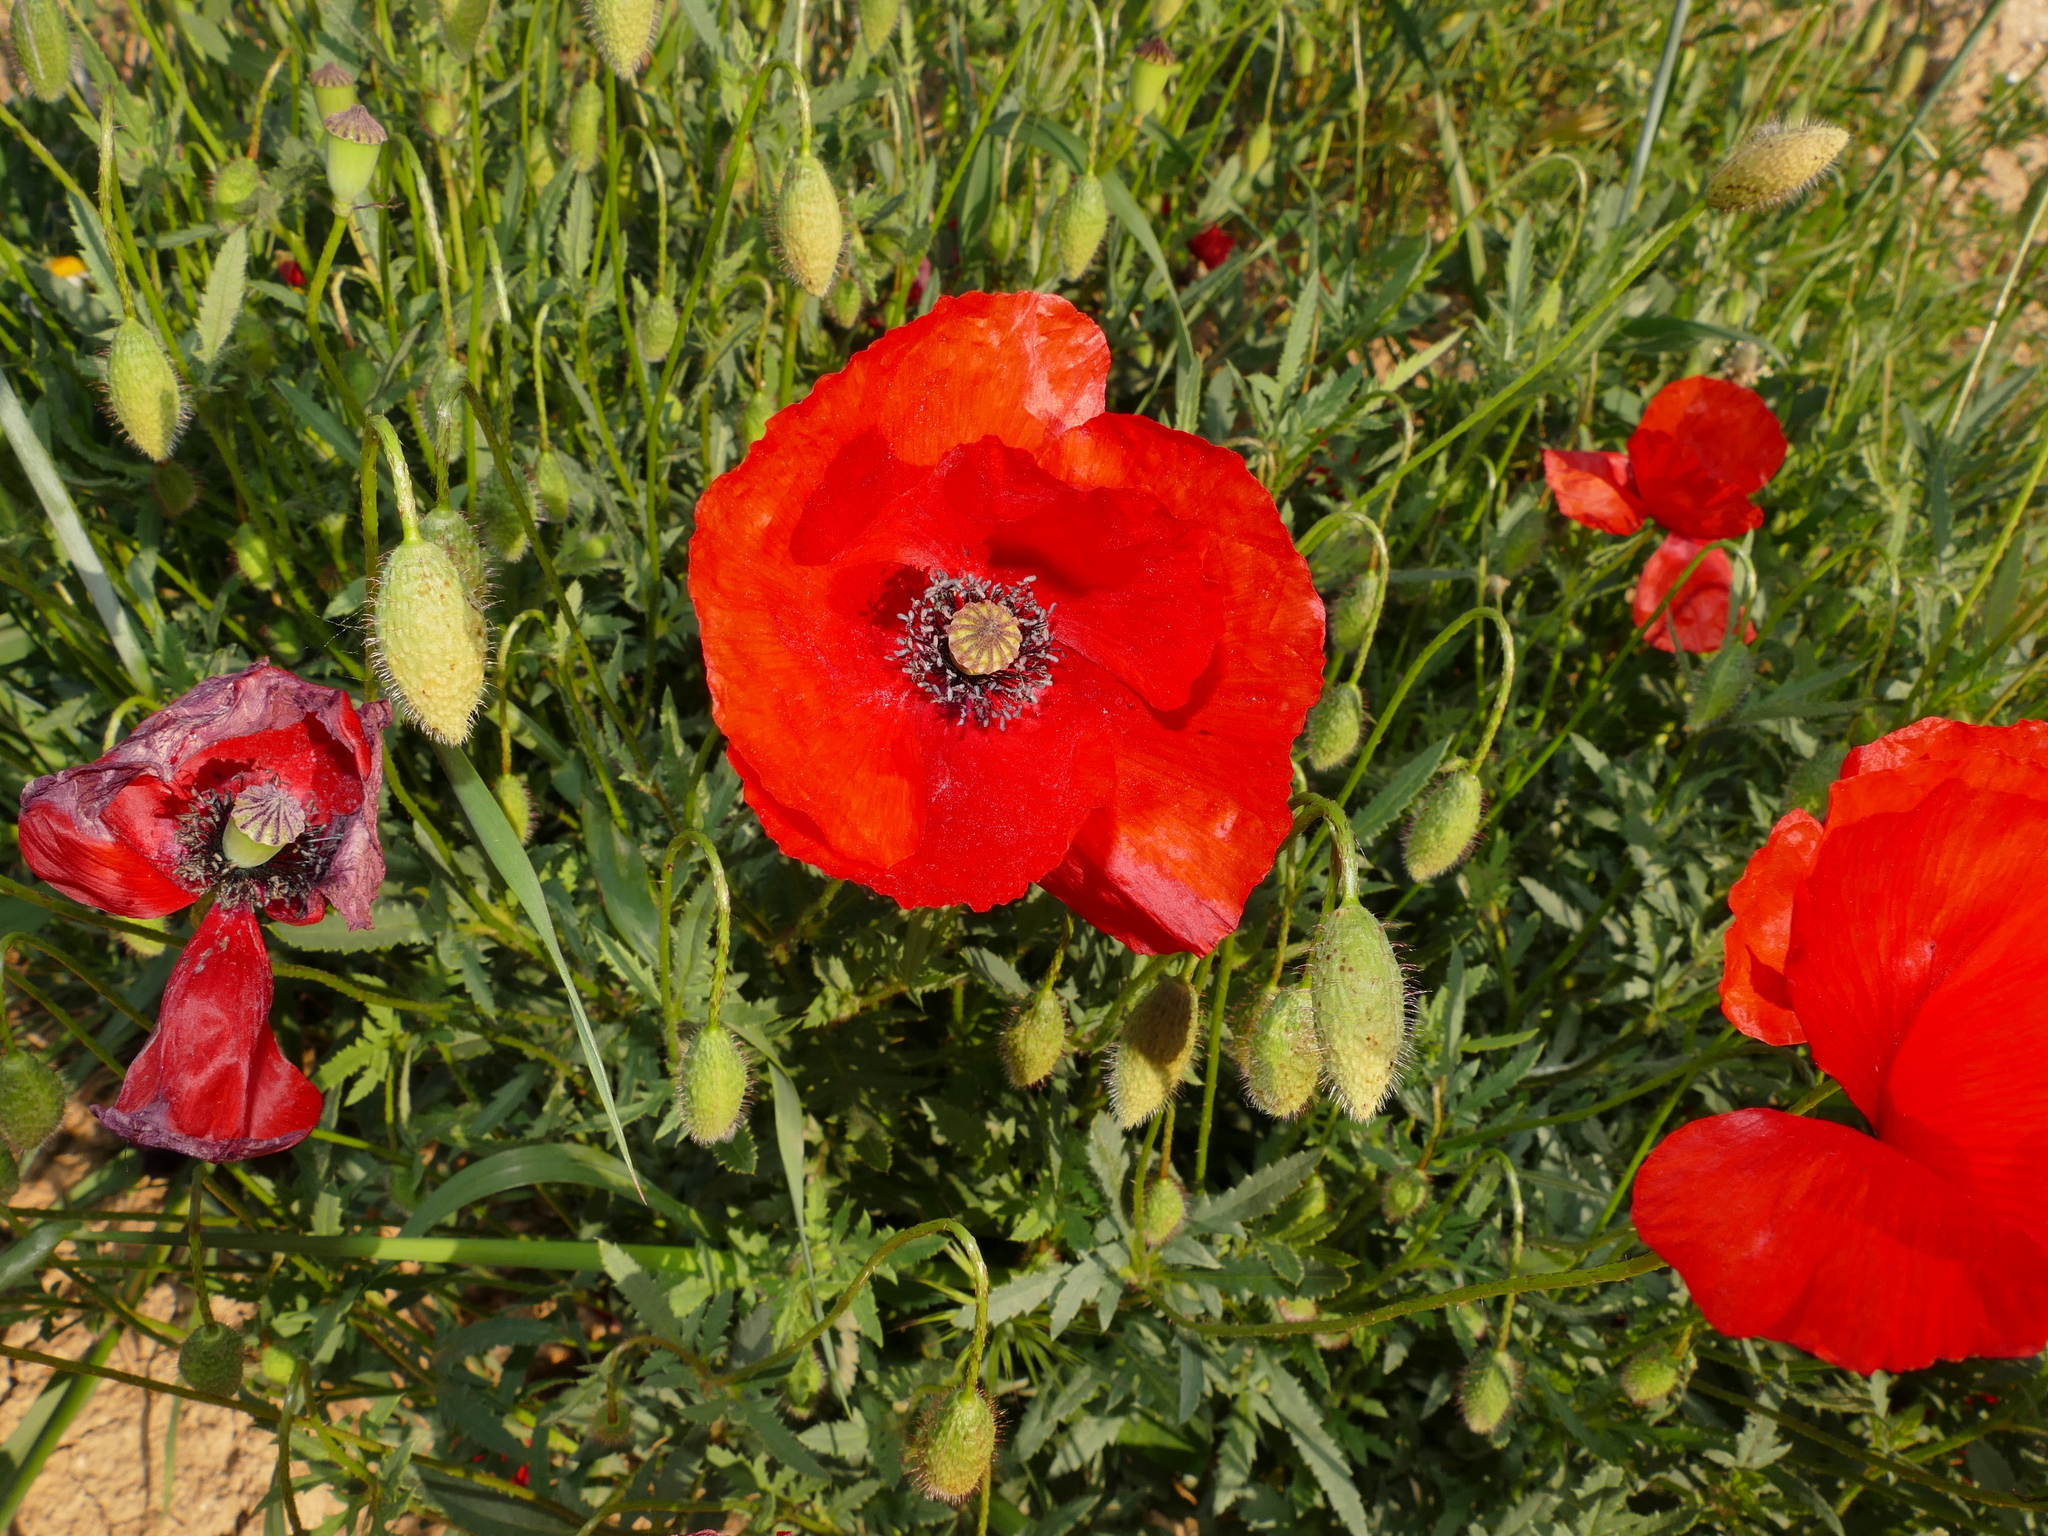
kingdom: Plantae
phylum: Tracheophyta
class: Magnoliopsida
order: Ranunculales
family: Papaveraceae
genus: Papaver
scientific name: Papaver rhoeas
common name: Corn poppy
